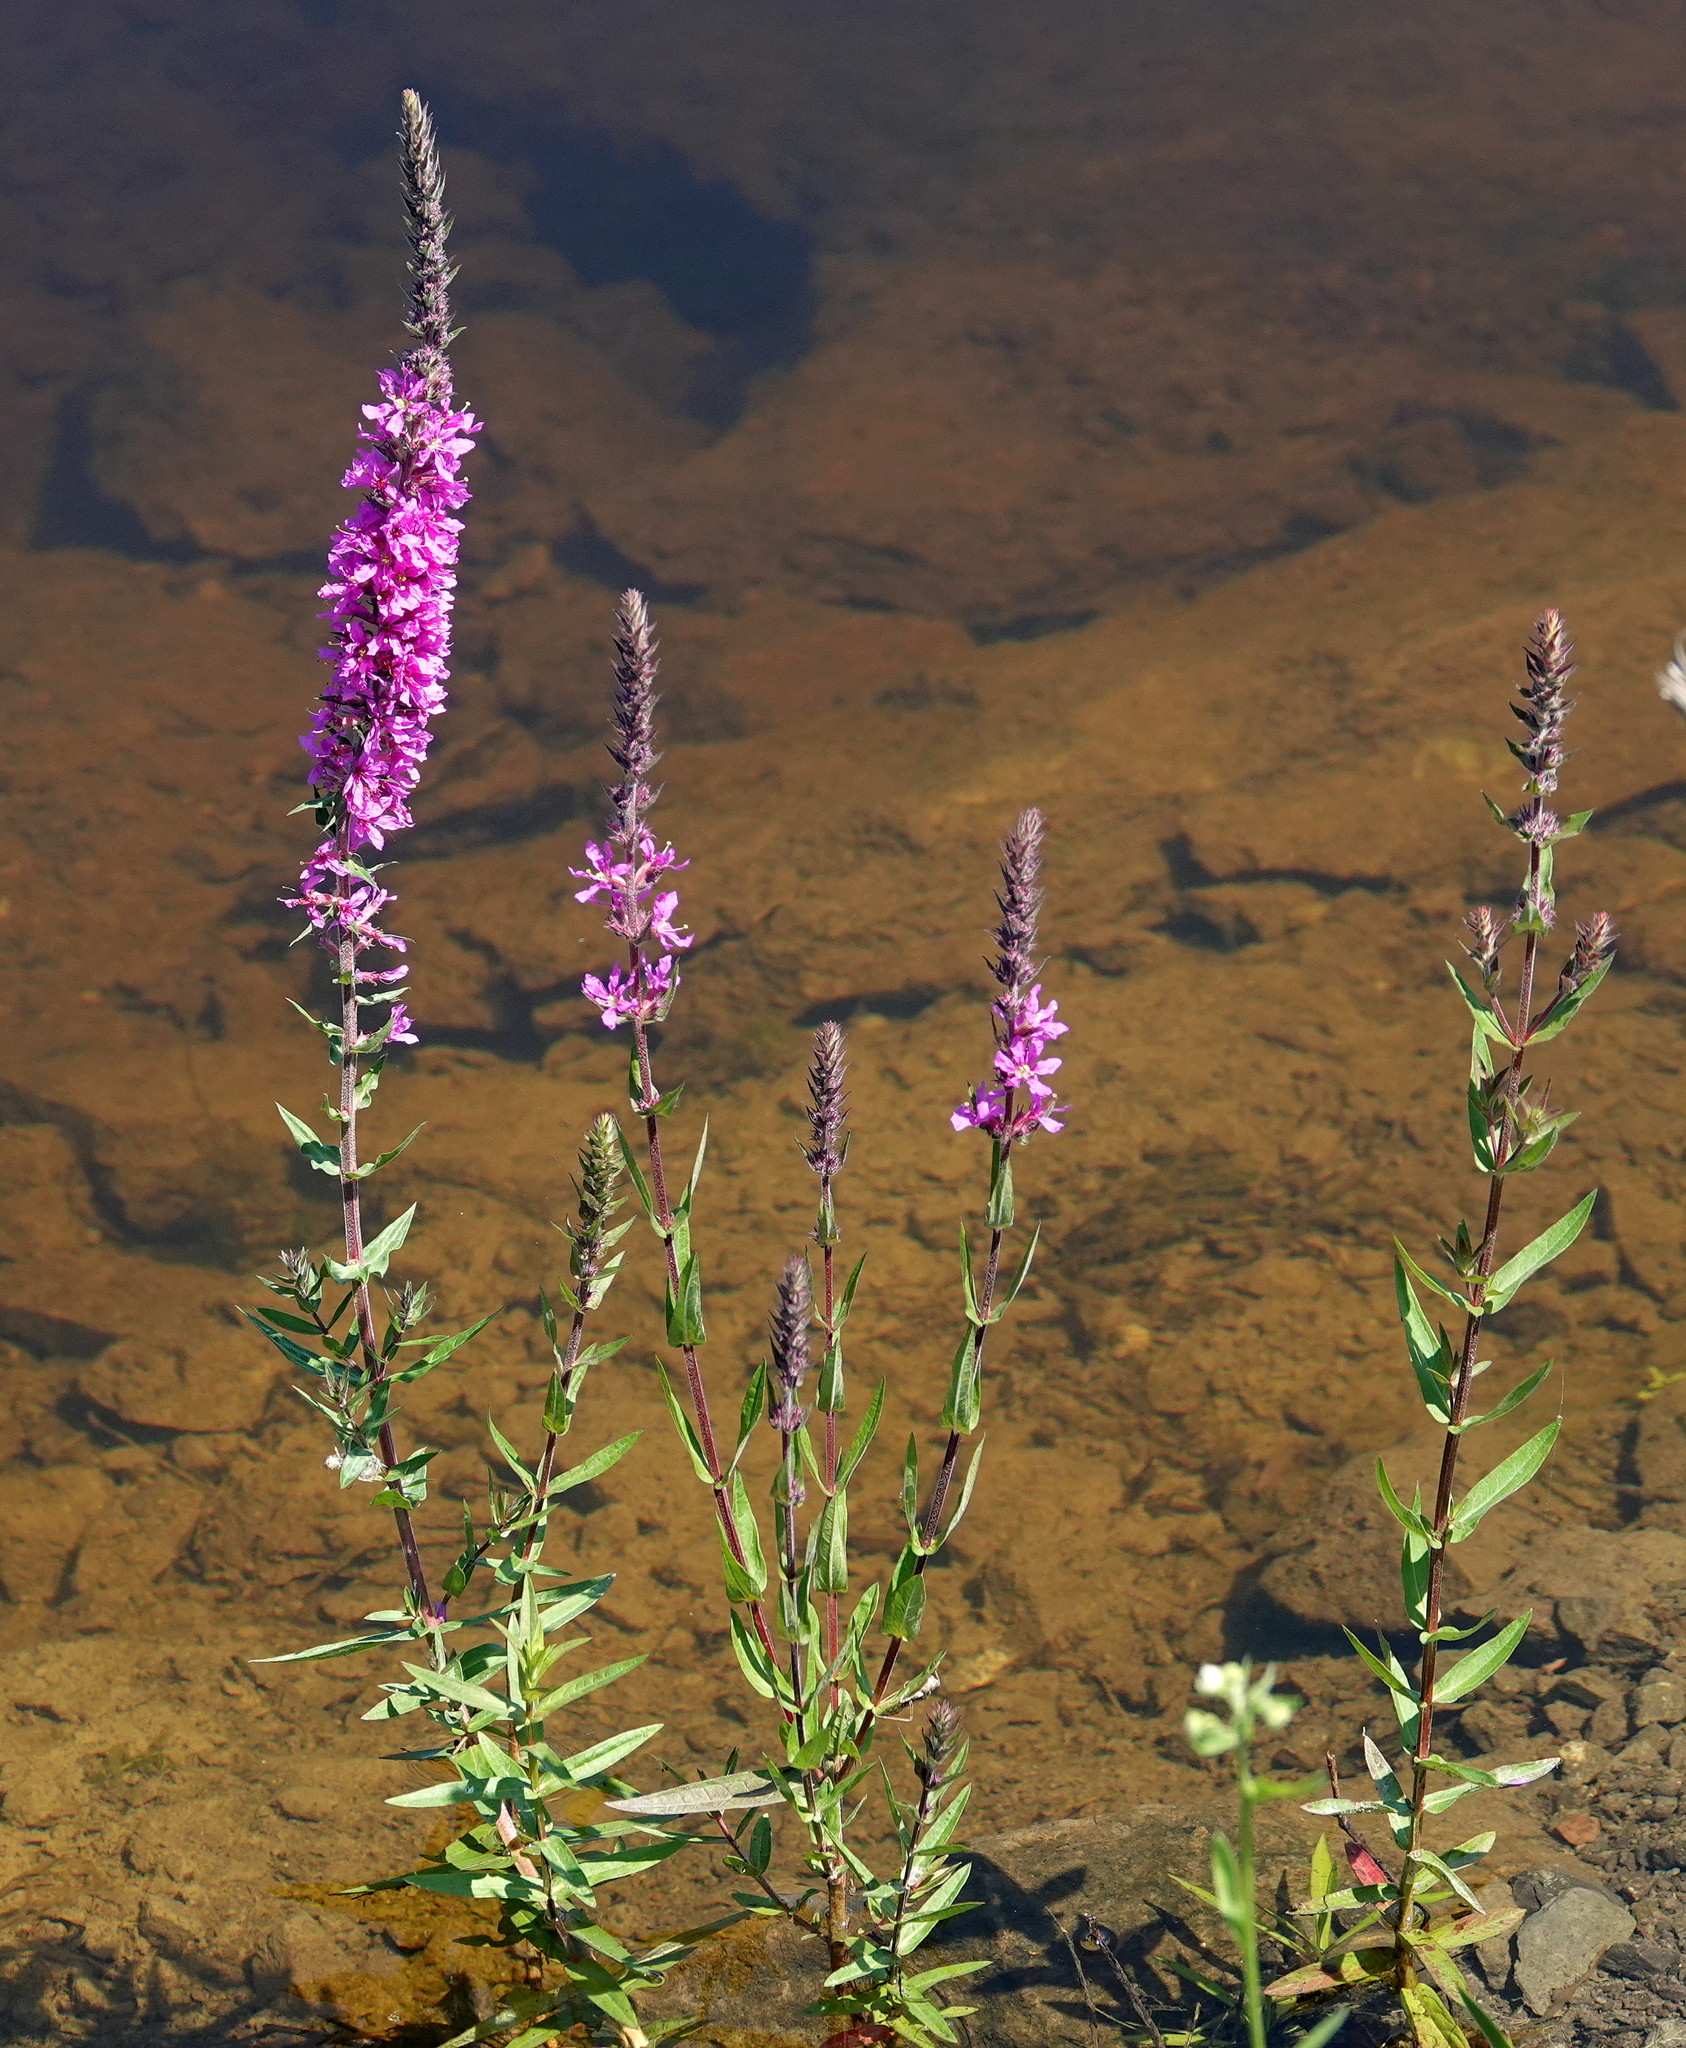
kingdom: Plantae
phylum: Tracheophyta
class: Magnoliopsida
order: Myrtales
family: Lythraceae
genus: Lythrum
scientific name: Lythrum salicaria
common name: Purple loosestrife
